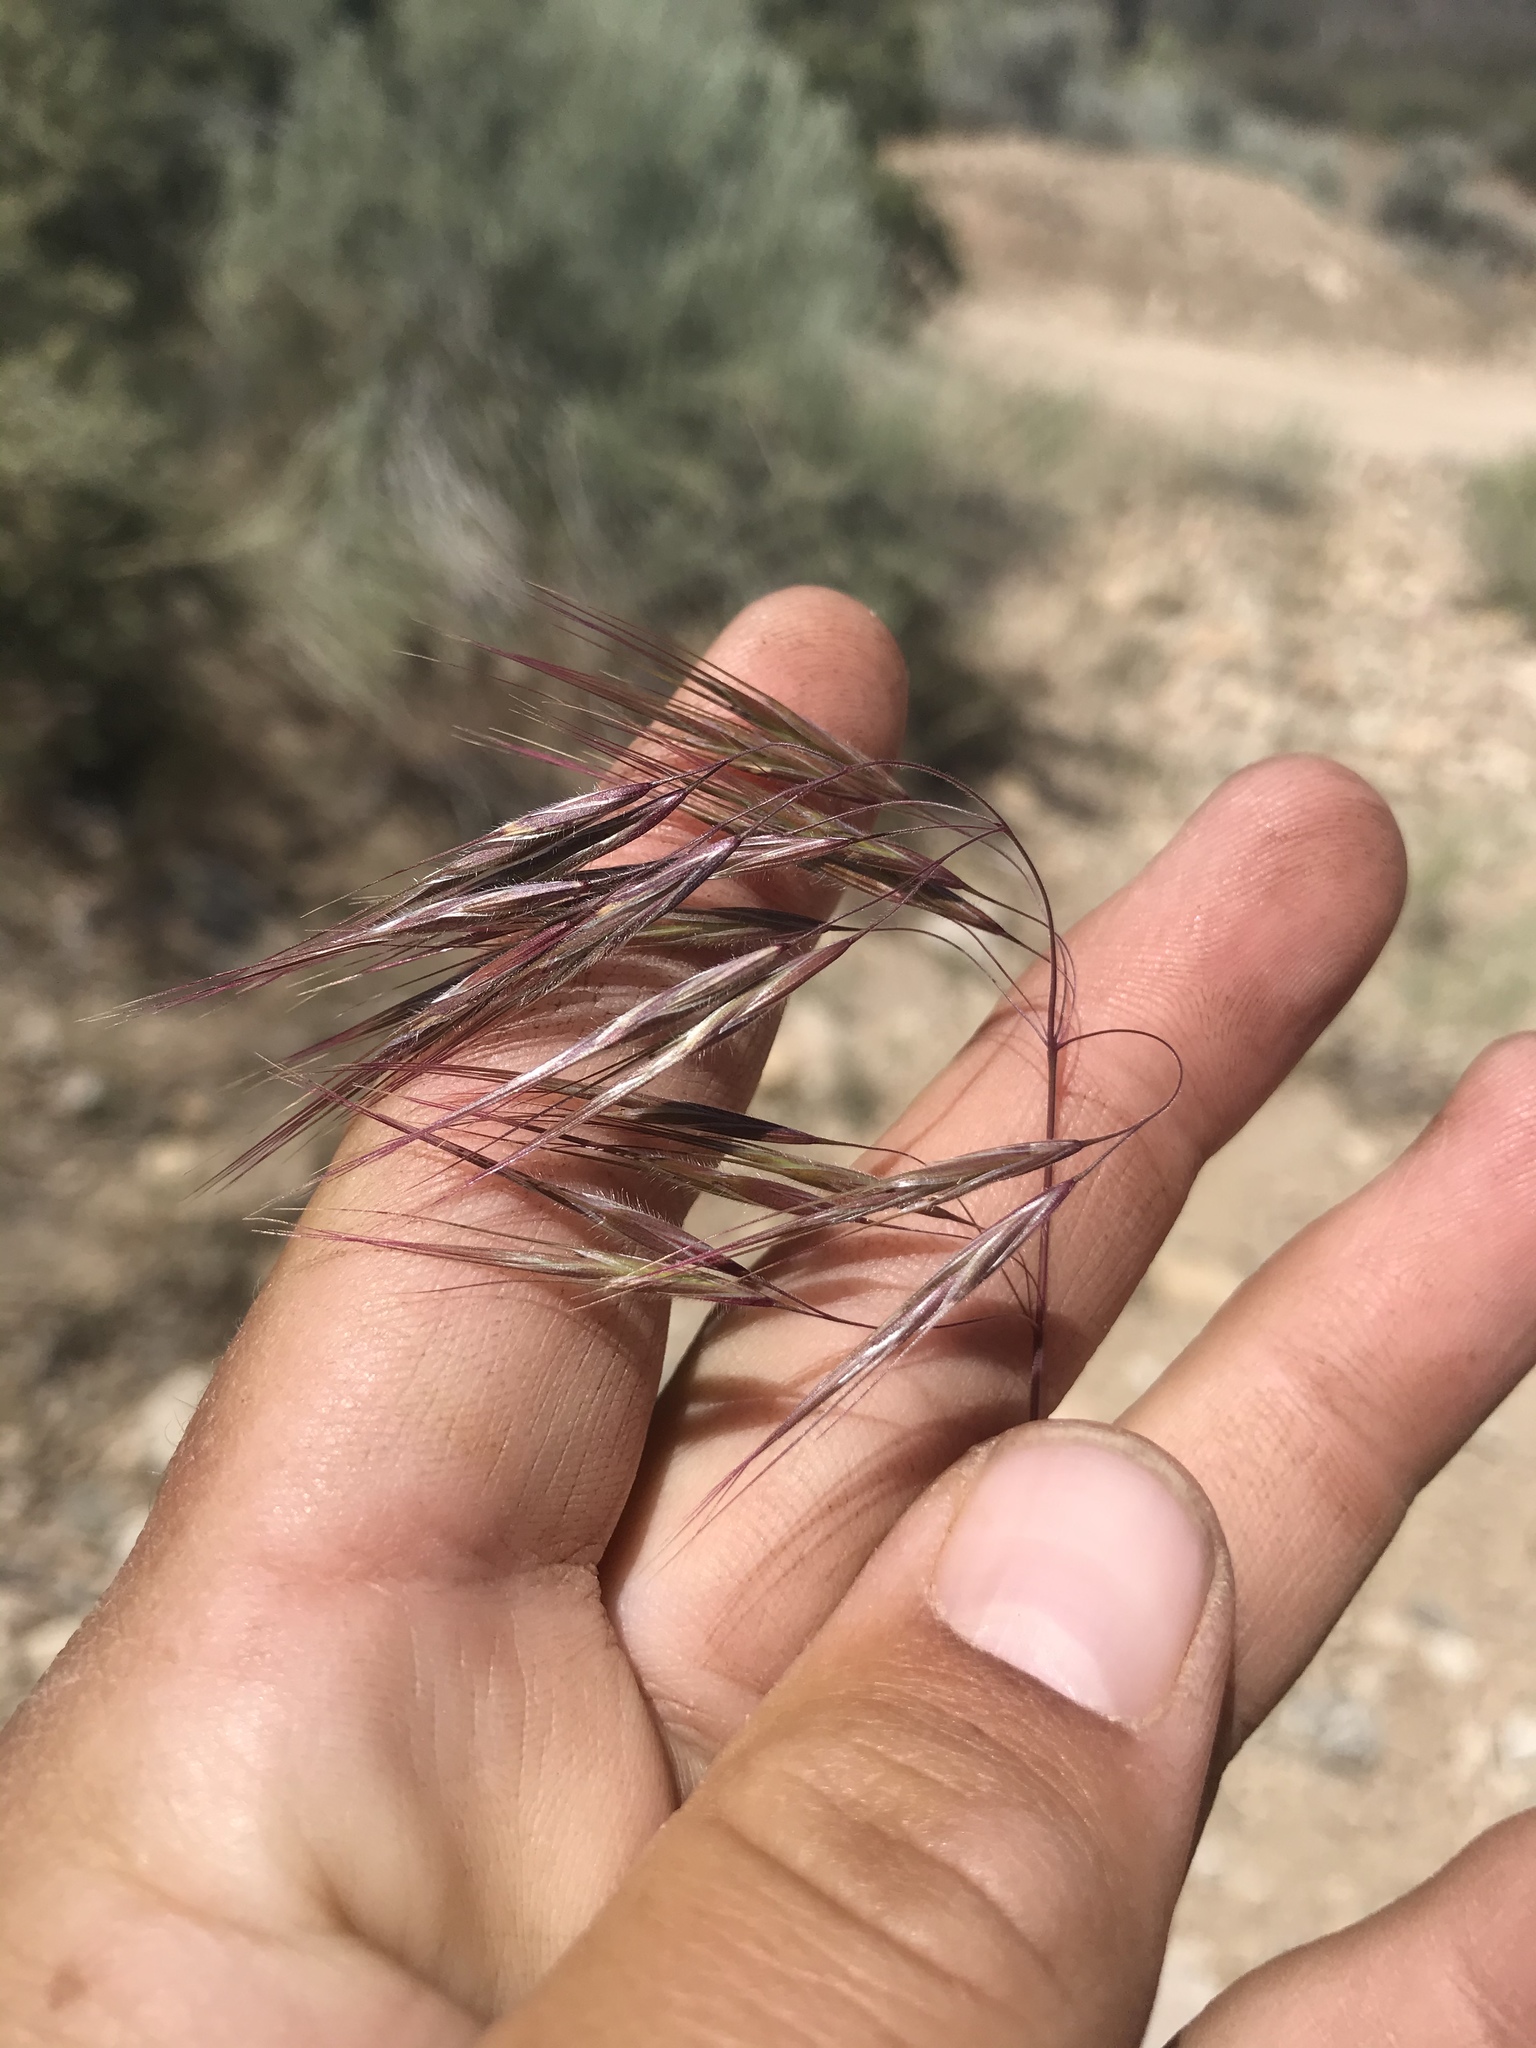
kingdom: Plantae
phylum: Tracheophyta
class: Liliopsida
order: Poales
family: Poaceae
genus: Bromus
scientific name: Bromus tectorum
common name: Cheatgrass
